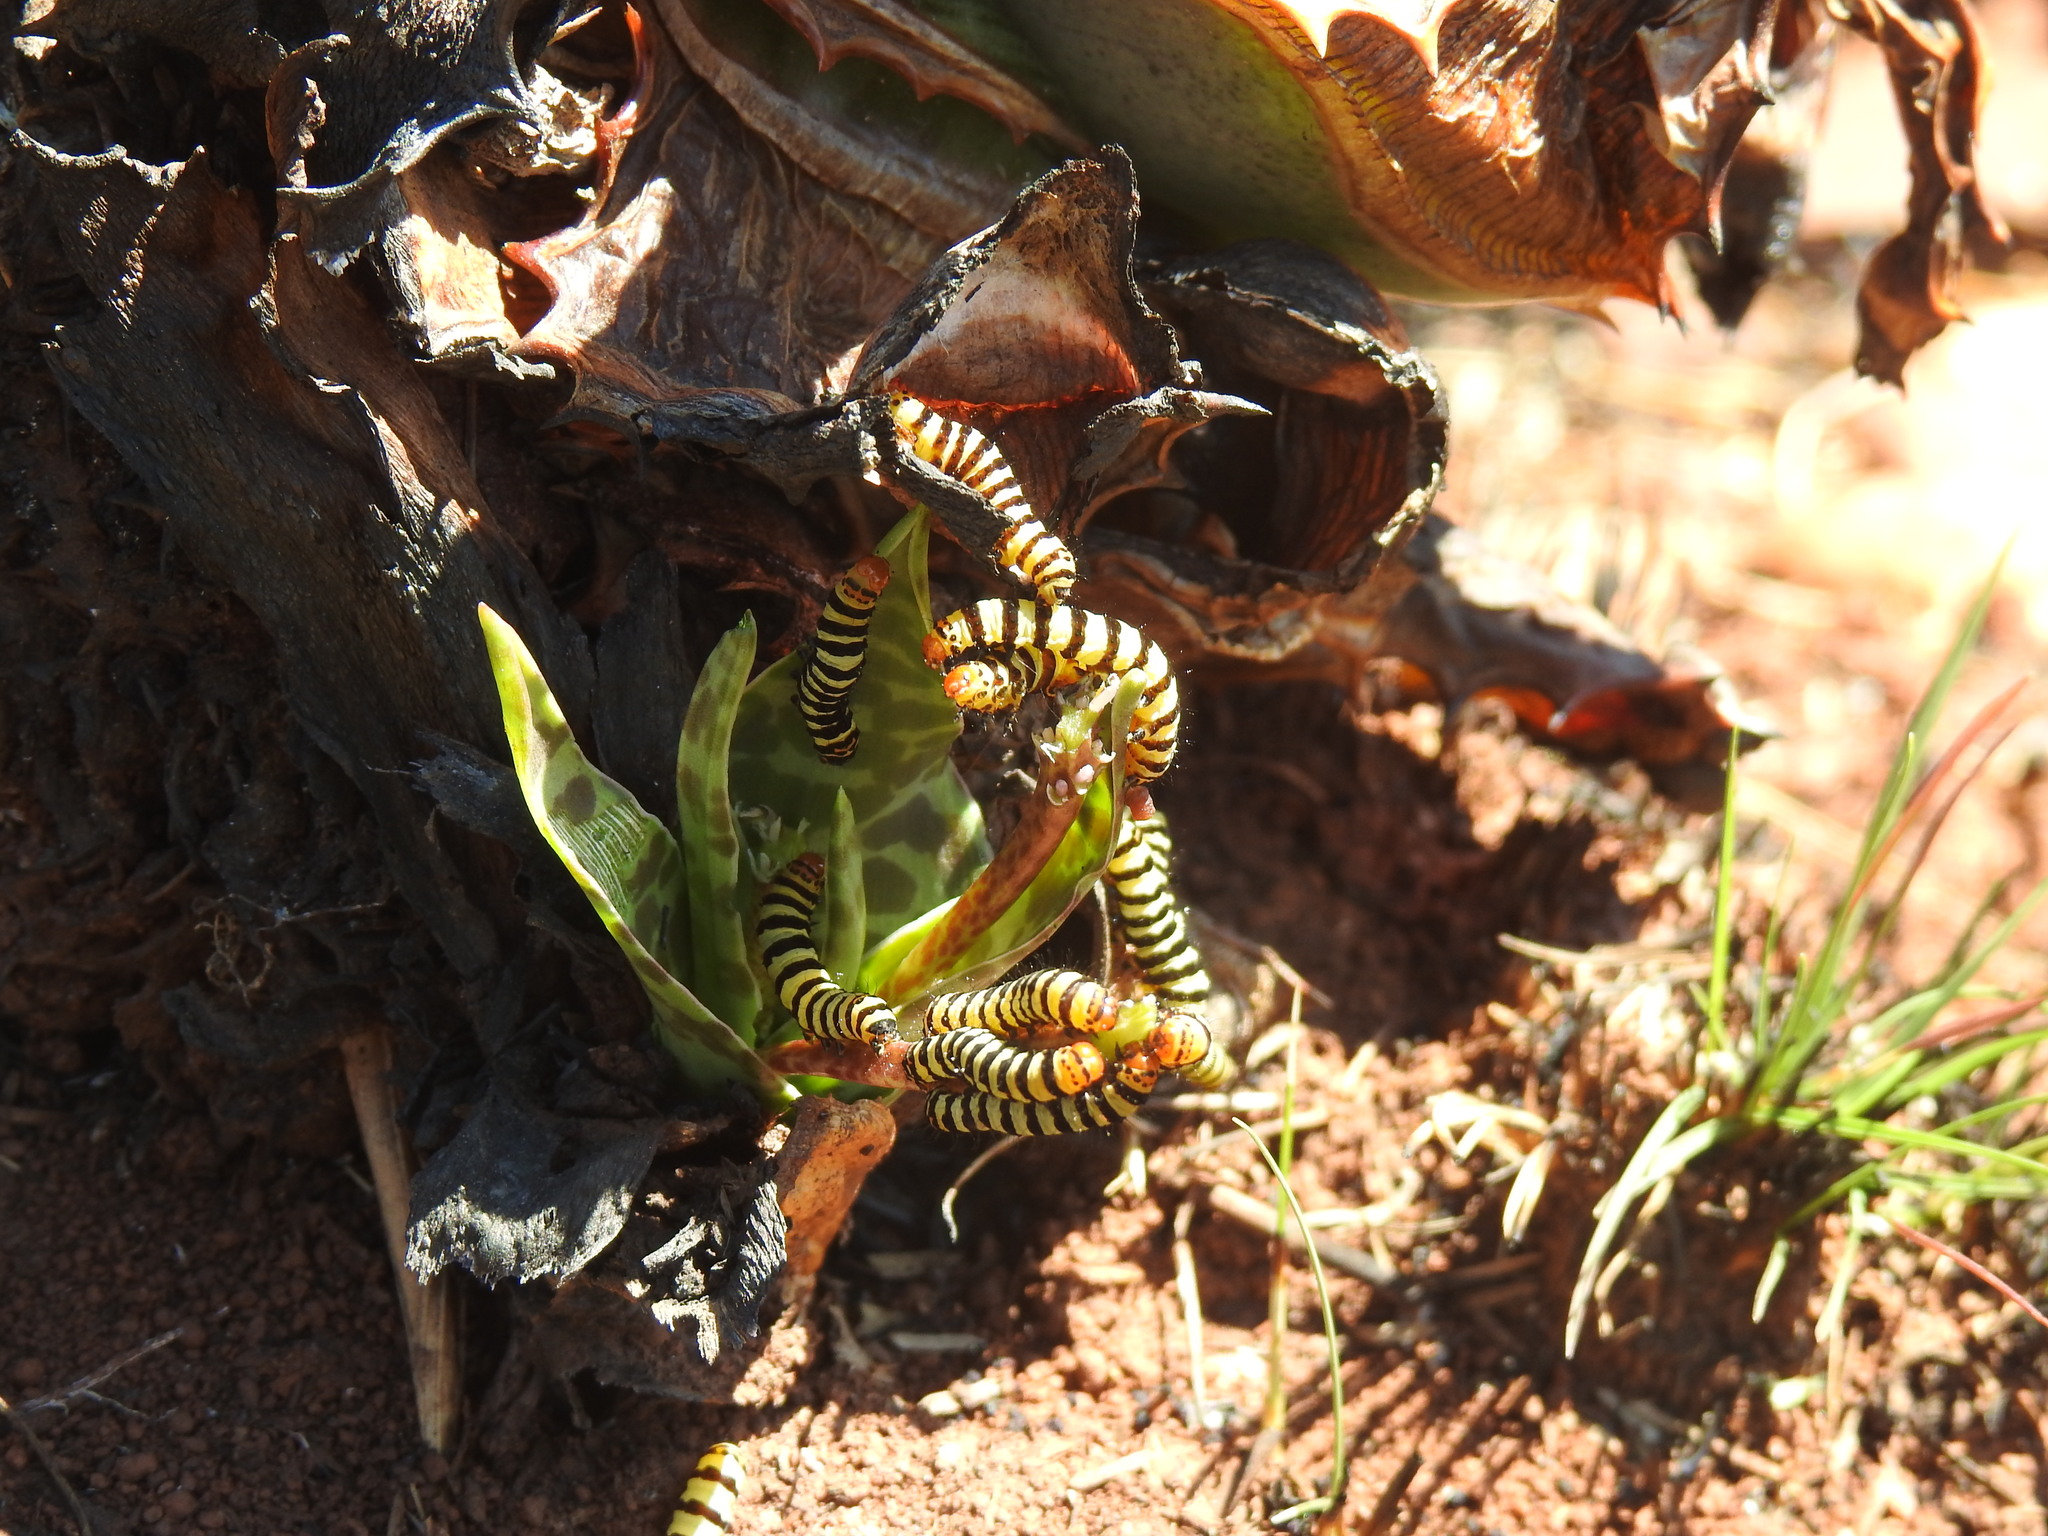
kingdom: Animalia
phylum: Arthropoda
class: Insecta
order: Lepidoptera
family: Noctuidae
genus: Diaphone
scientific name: Diaphone eumela
